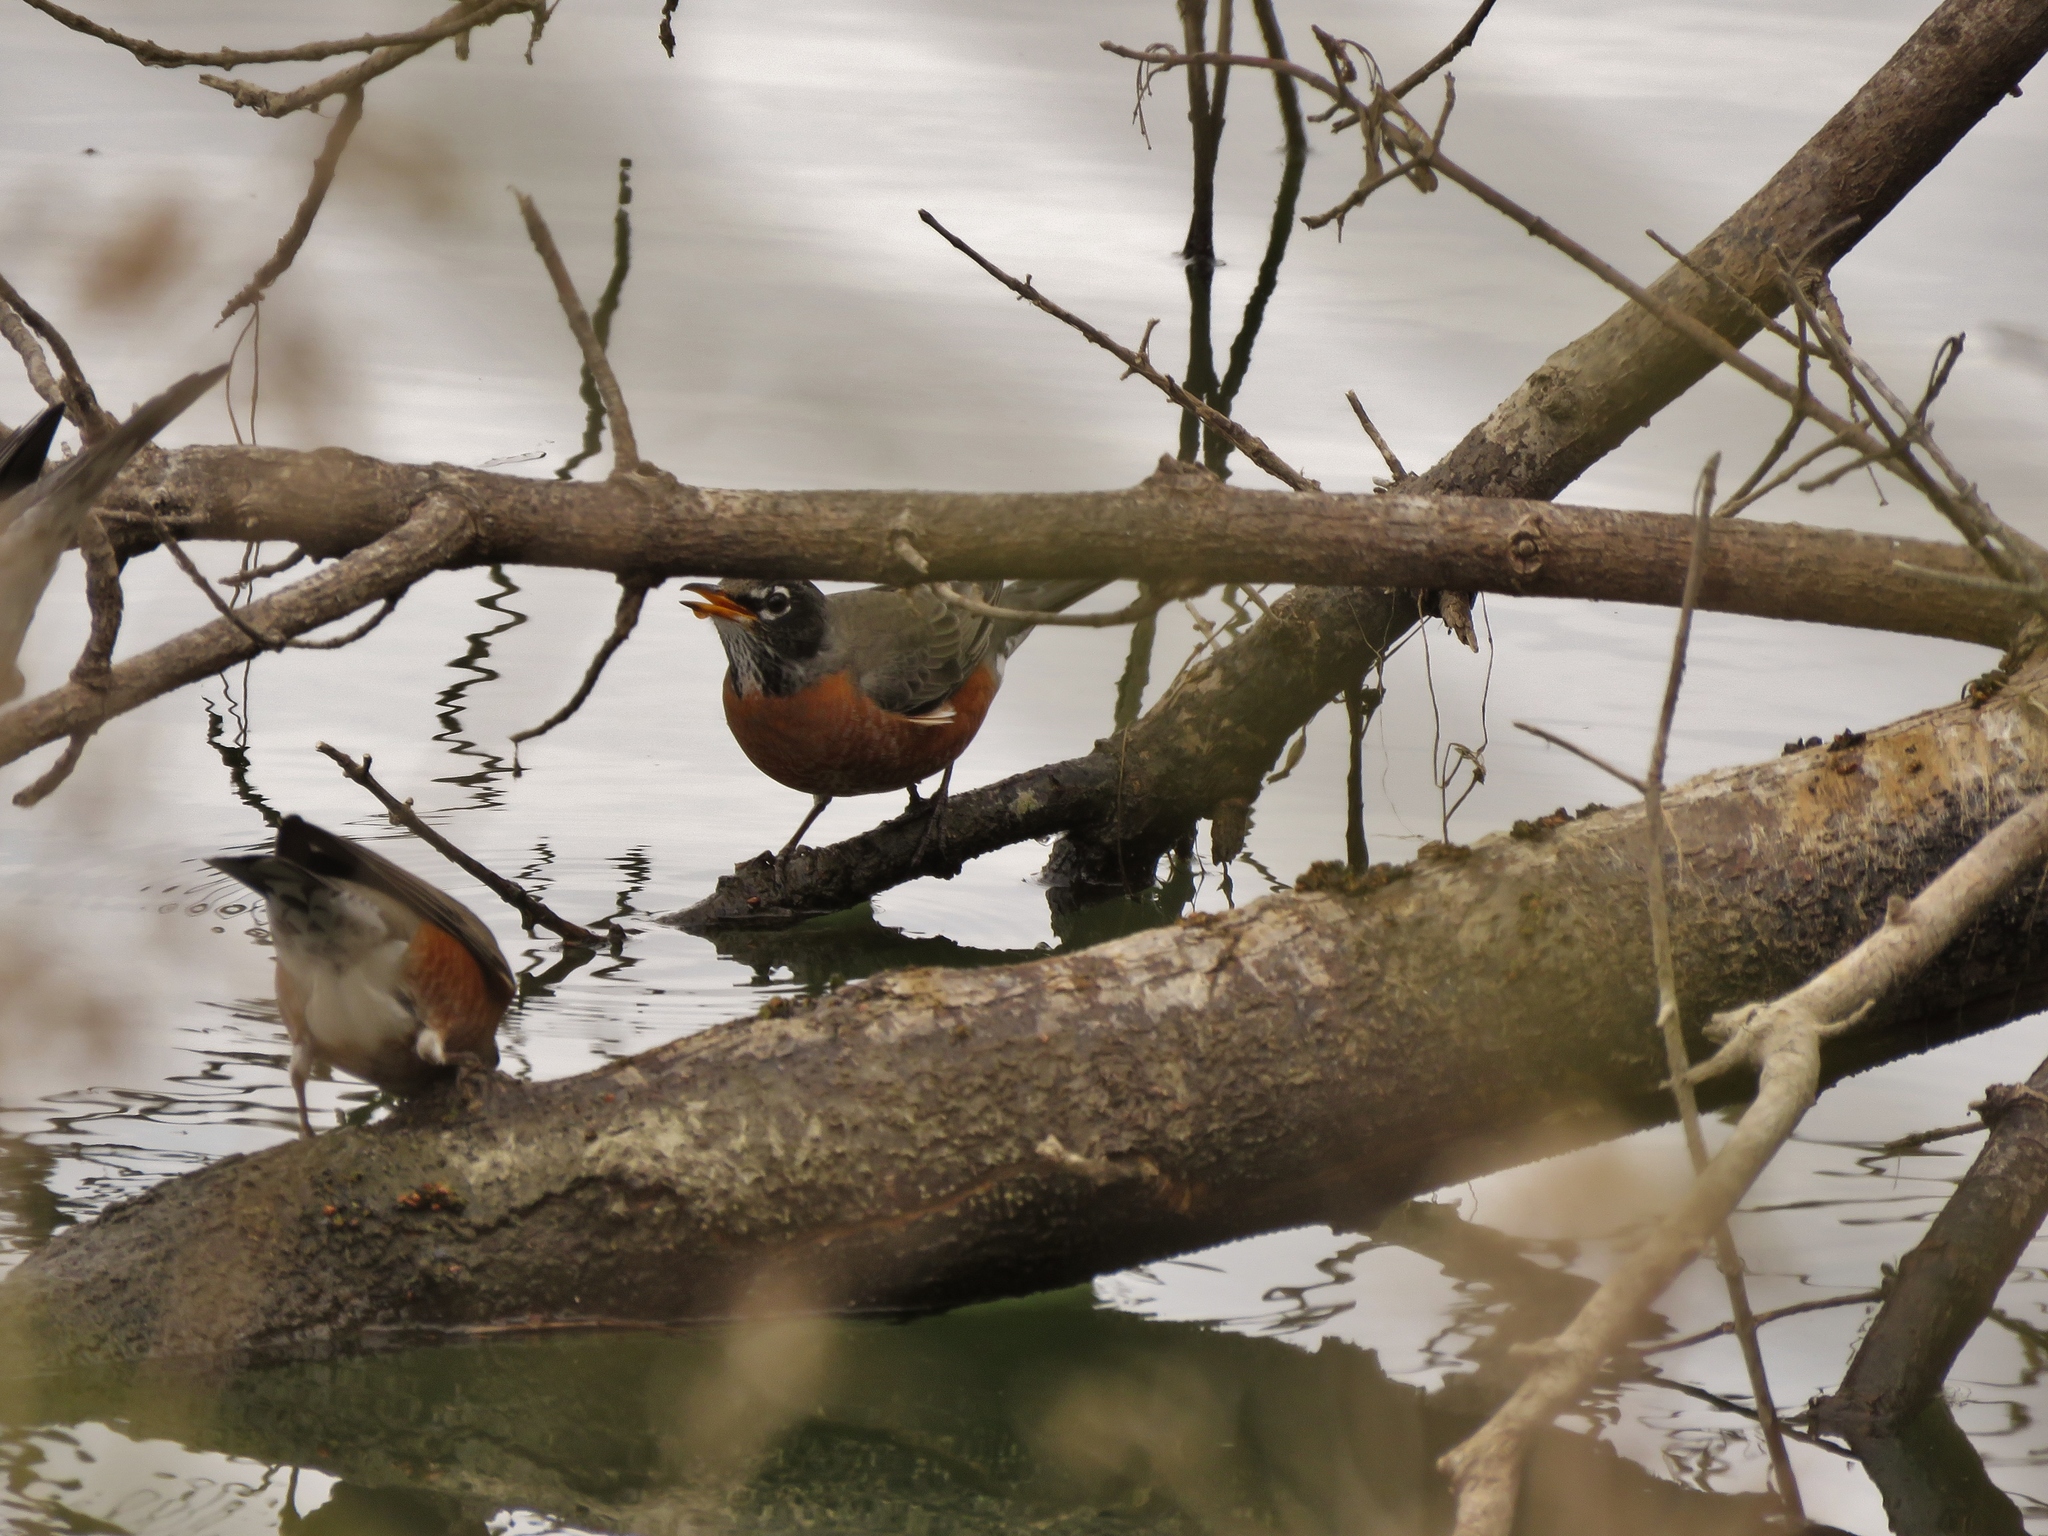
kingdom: Animalia
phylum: Chordata
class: Aves
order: Passeriformes
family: Turdidae
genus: Turdus
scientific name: Turdus migratorius
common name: American robin
